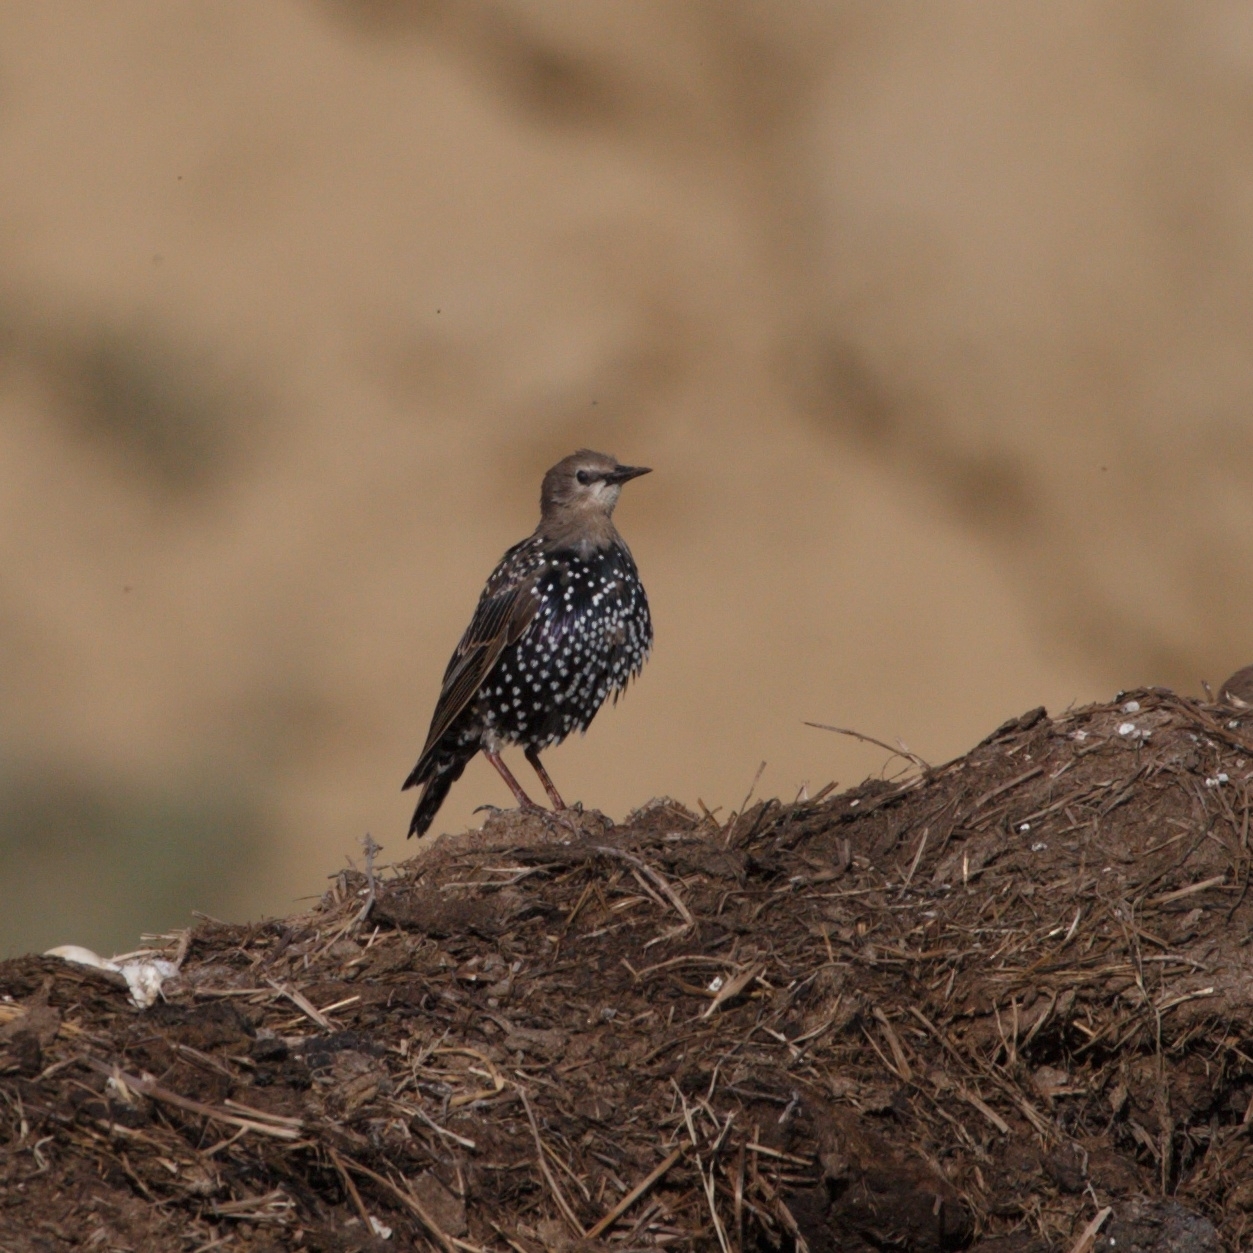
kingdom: Animalia
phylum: Chordata
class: Aves
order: Passeriformes
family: Sturnidae
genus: Sturnus
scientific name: Sturnus vulgaris
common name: Common starling
